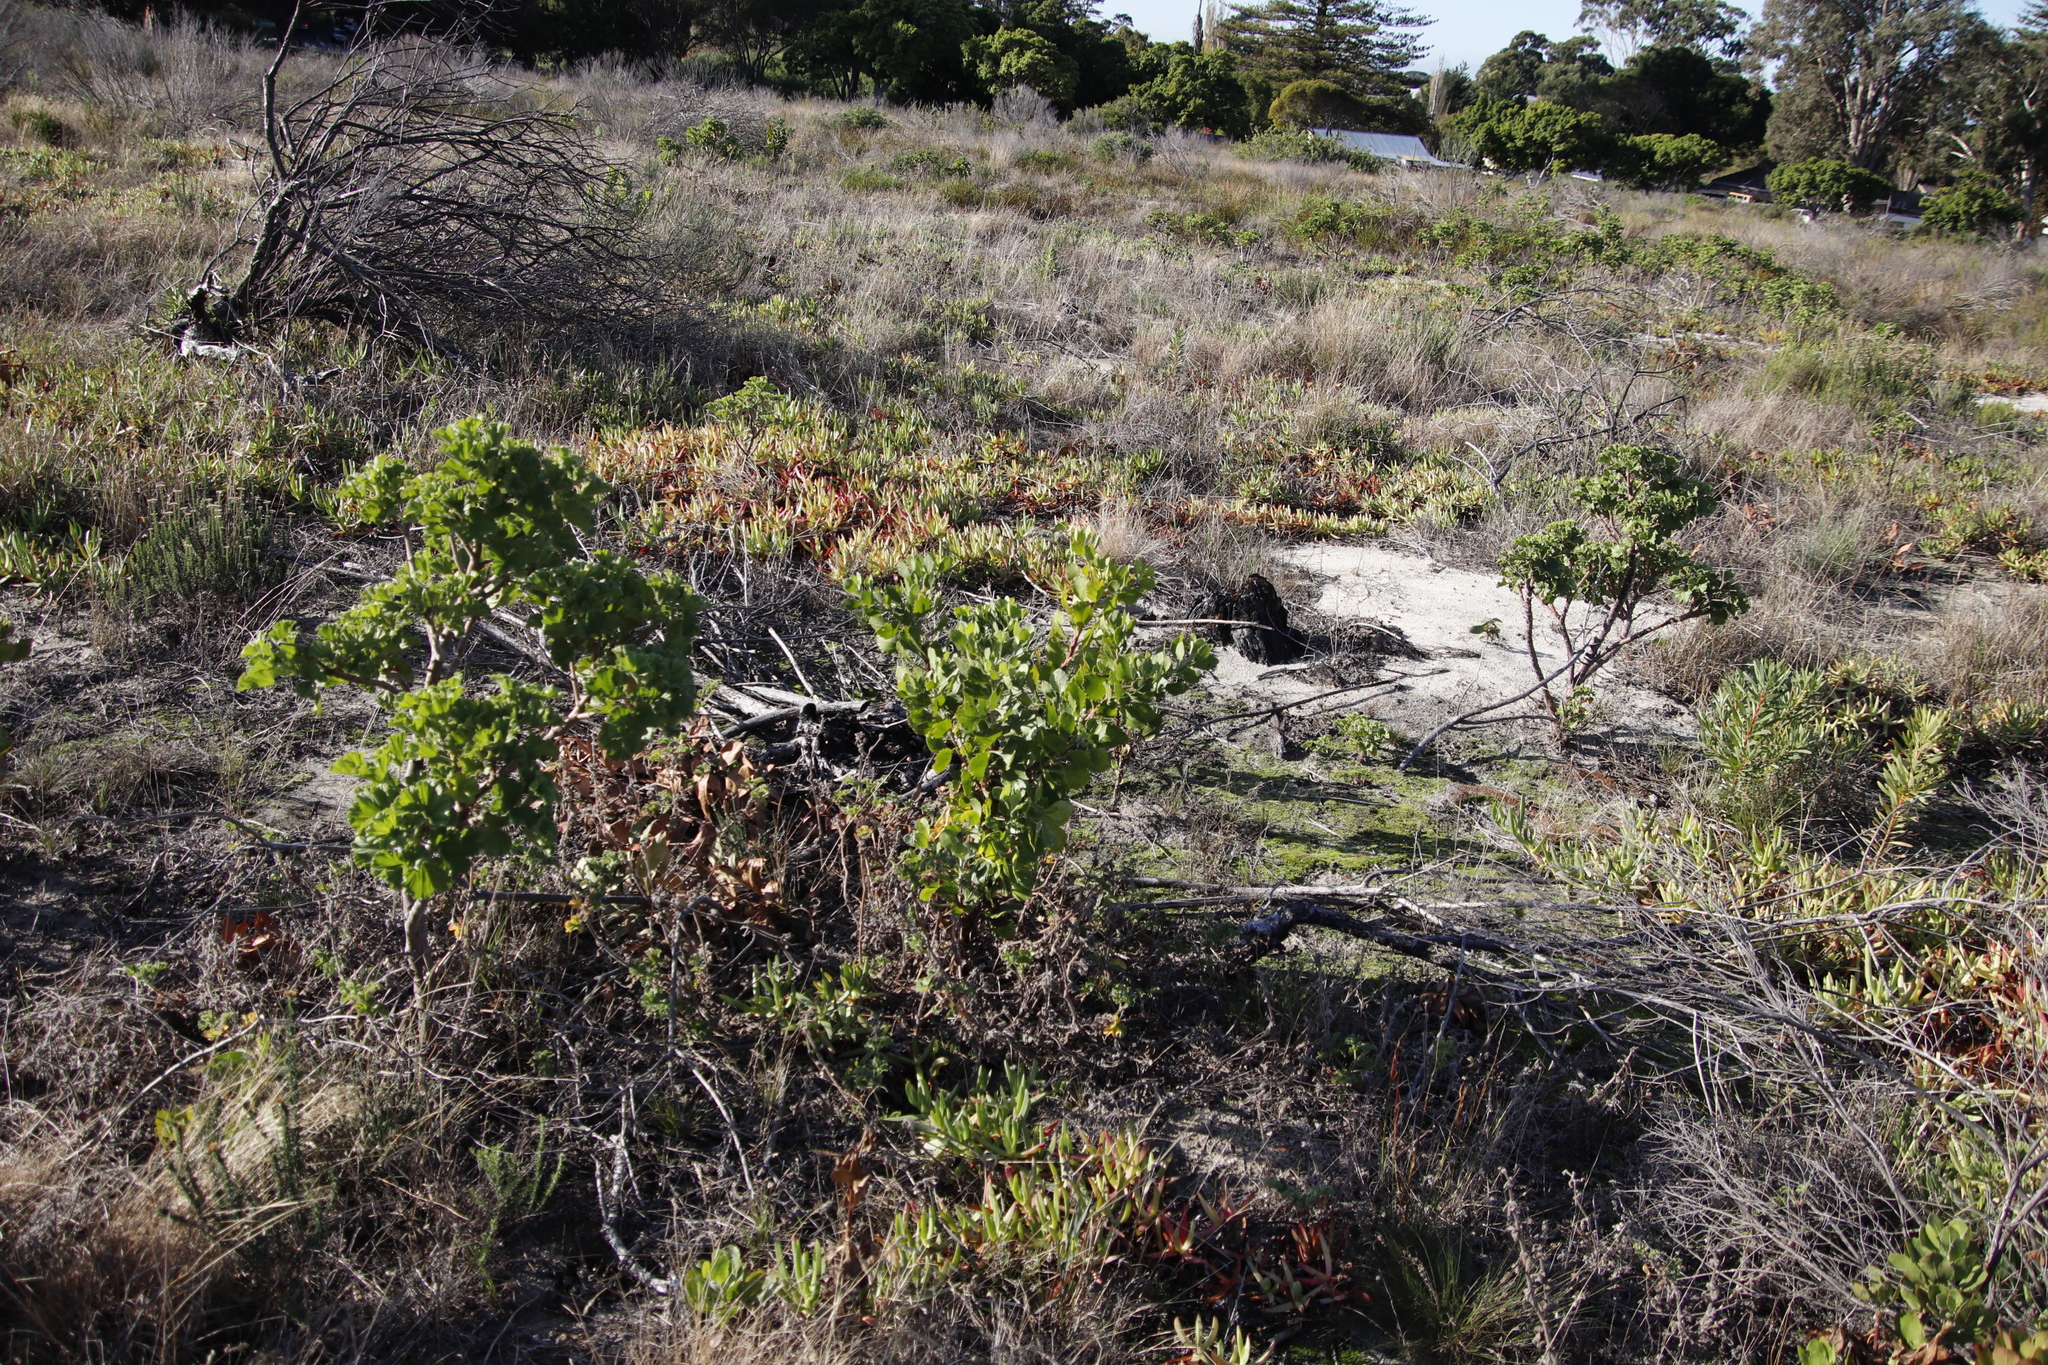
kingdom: Plantae
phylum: Tracheophyta
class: Magnoliopsida
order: Asterales
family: Asteraceae
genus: Osteospermum
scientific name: Osteospermum moniliferum
